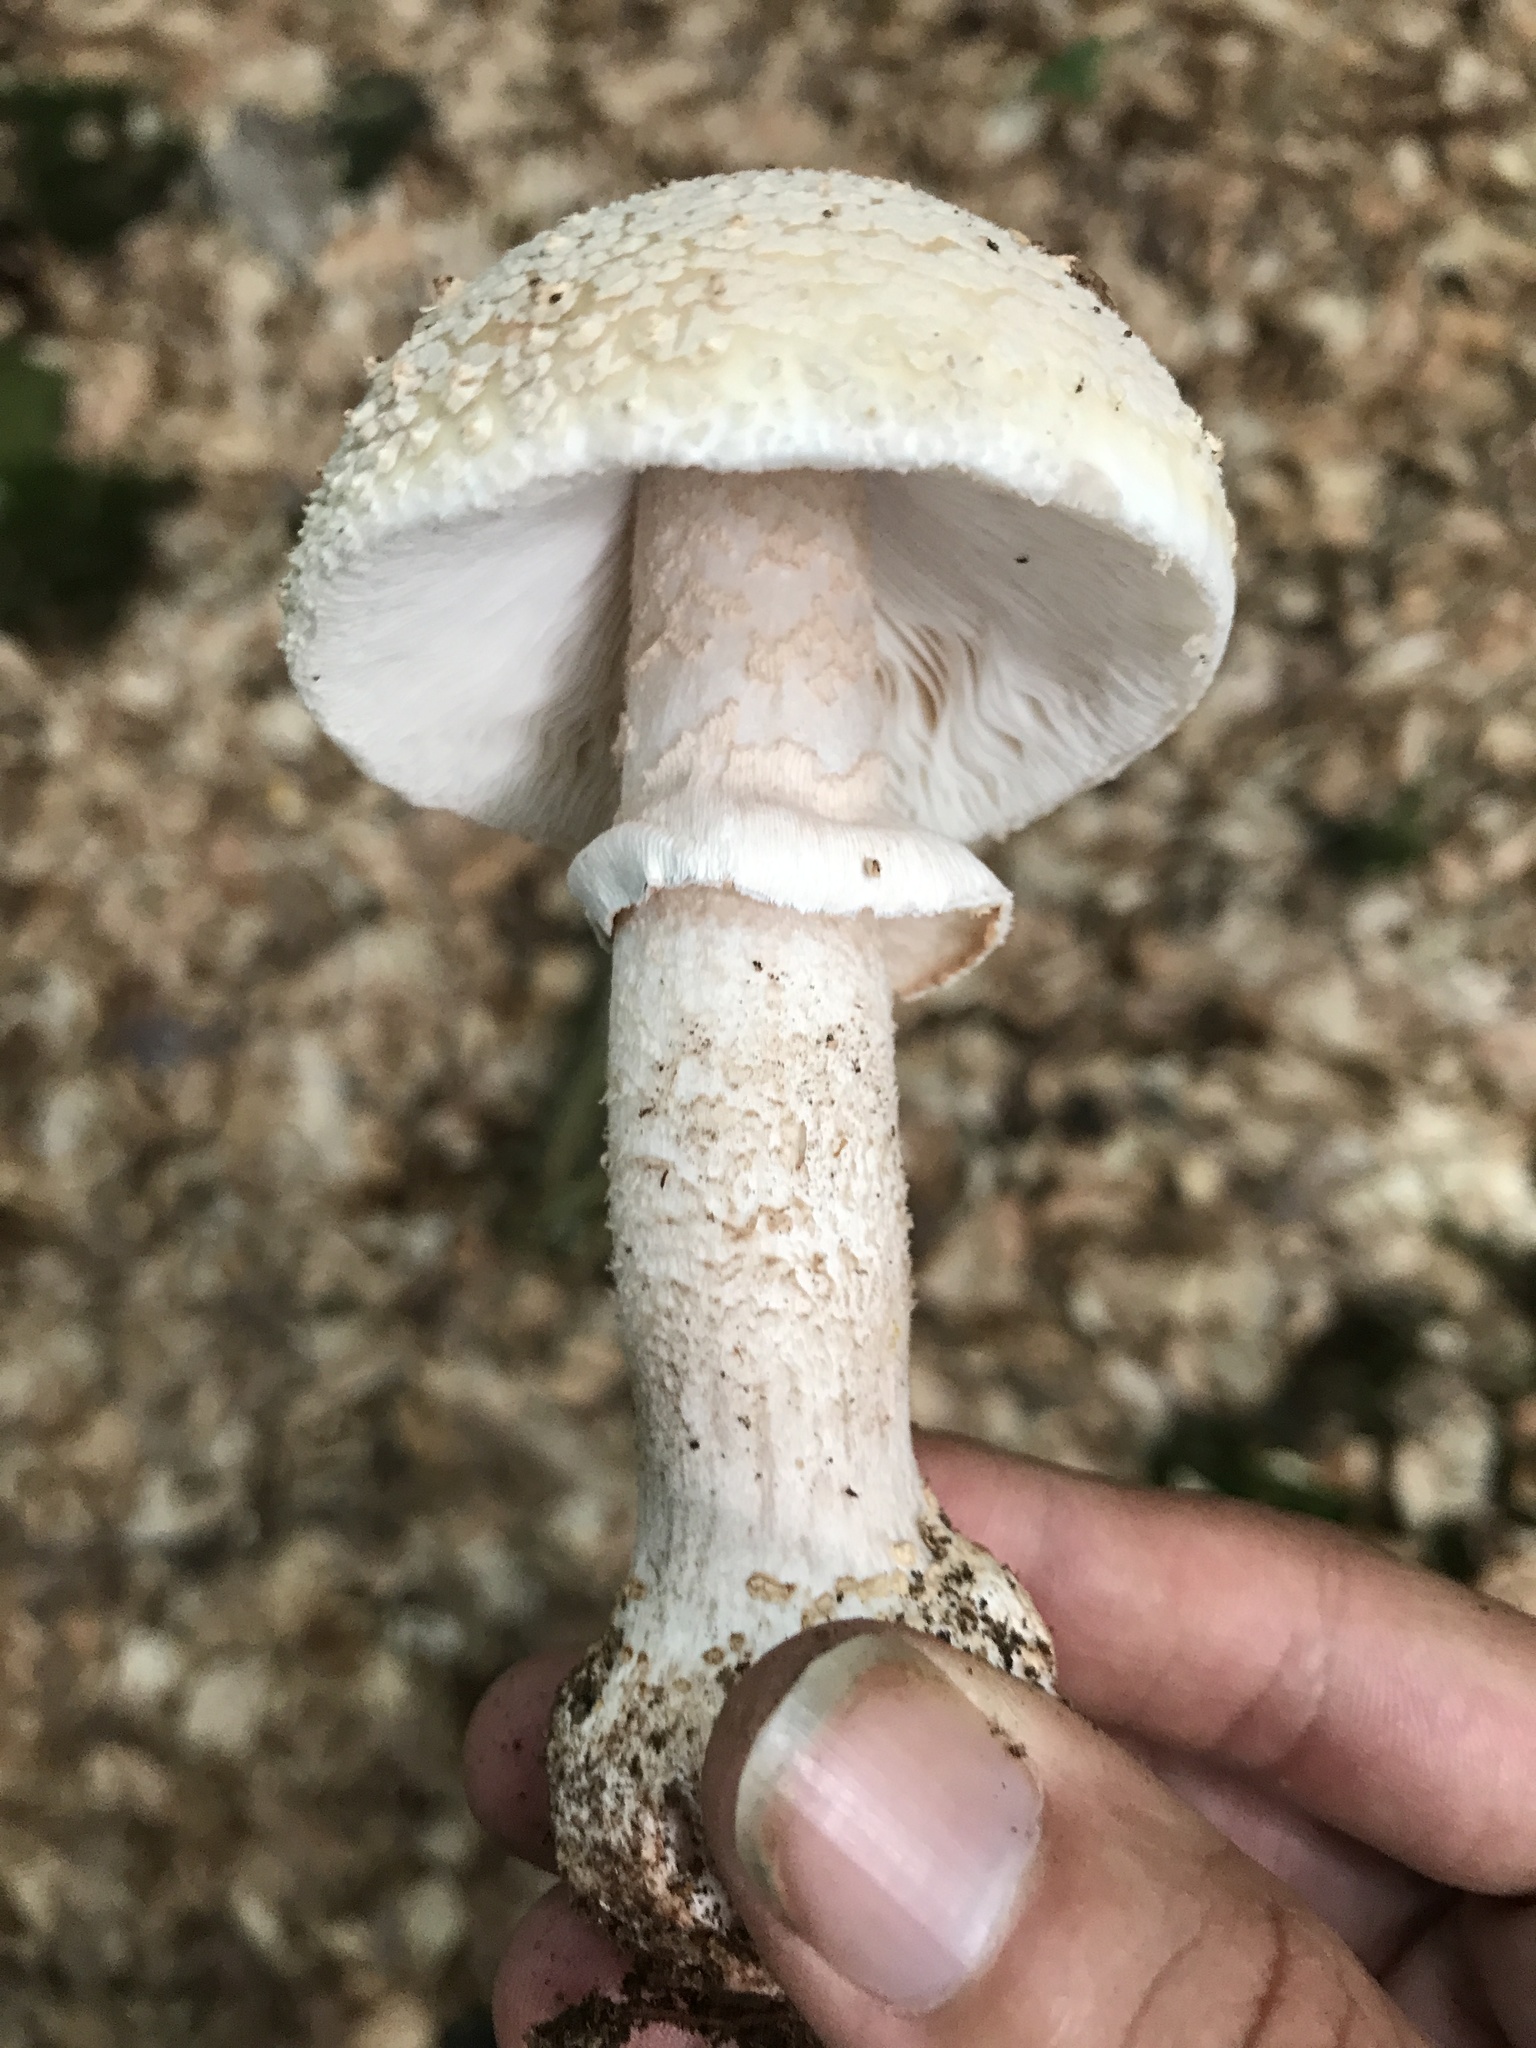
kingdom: Fungi
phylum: Basidiomycota
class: Agaricomycetes
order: Agaricales
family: Amanitaceae
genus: Amanita
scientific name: Amanita rubescens
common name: Blusher
